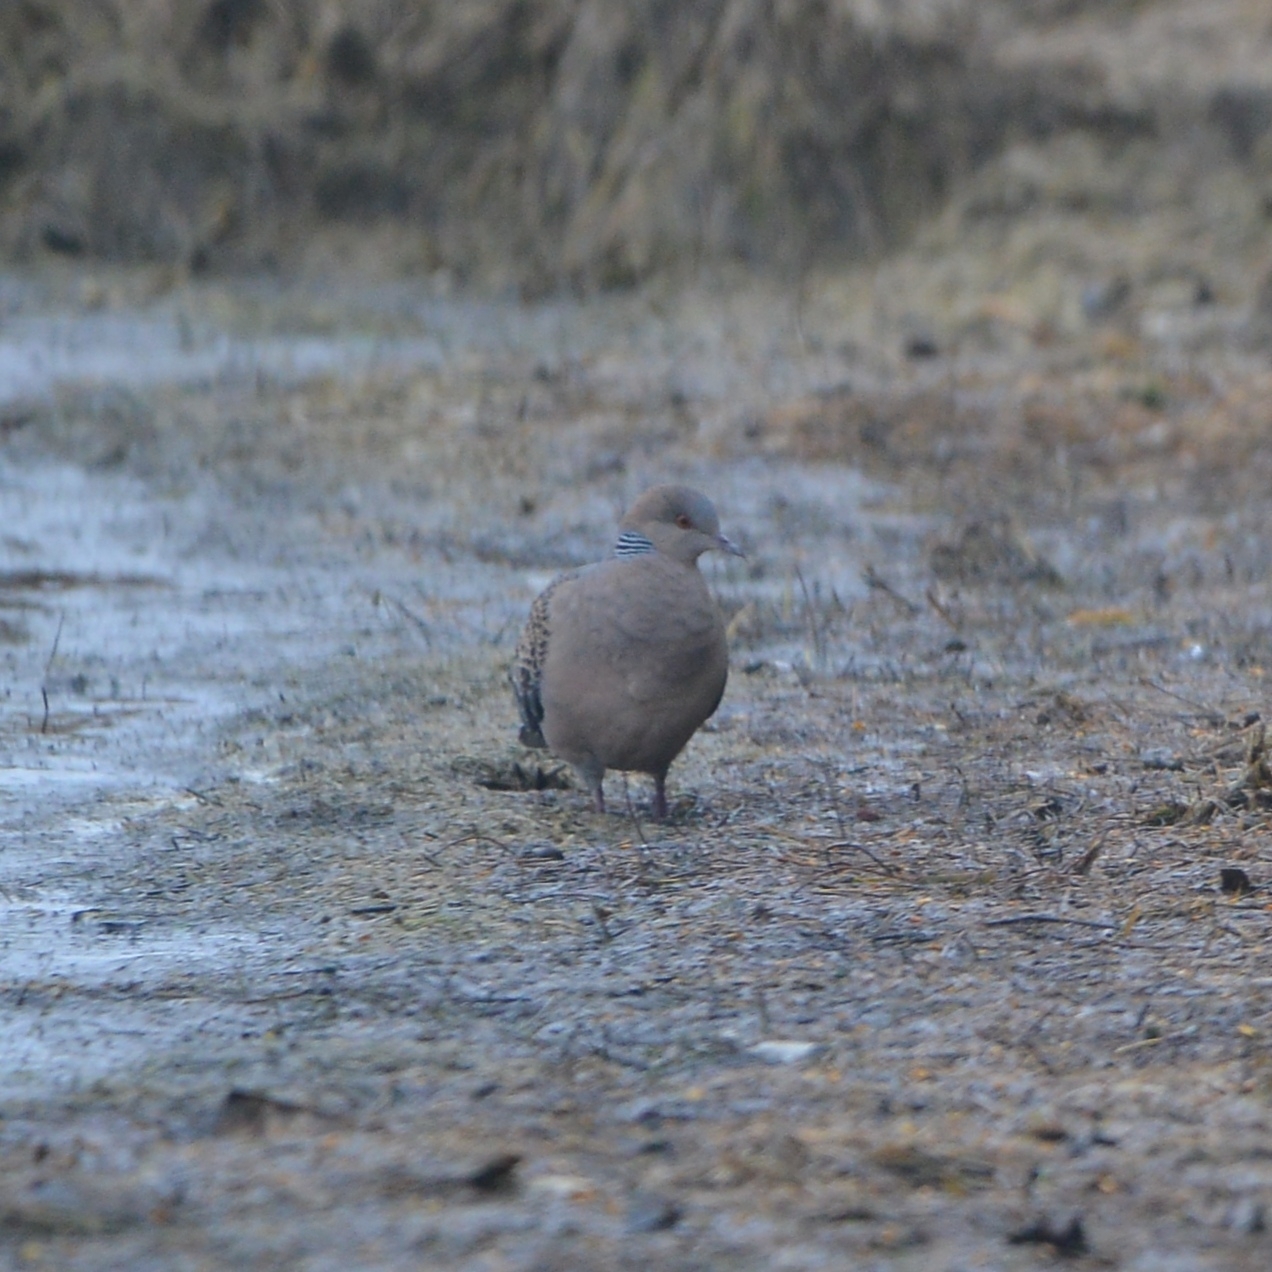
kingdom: Animalia
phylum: Chordata
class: Aves
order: Columbiformes
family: Columbidae
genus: Streptopelia
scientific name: Streptopelia orientalis
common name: Oriental turtle dove
